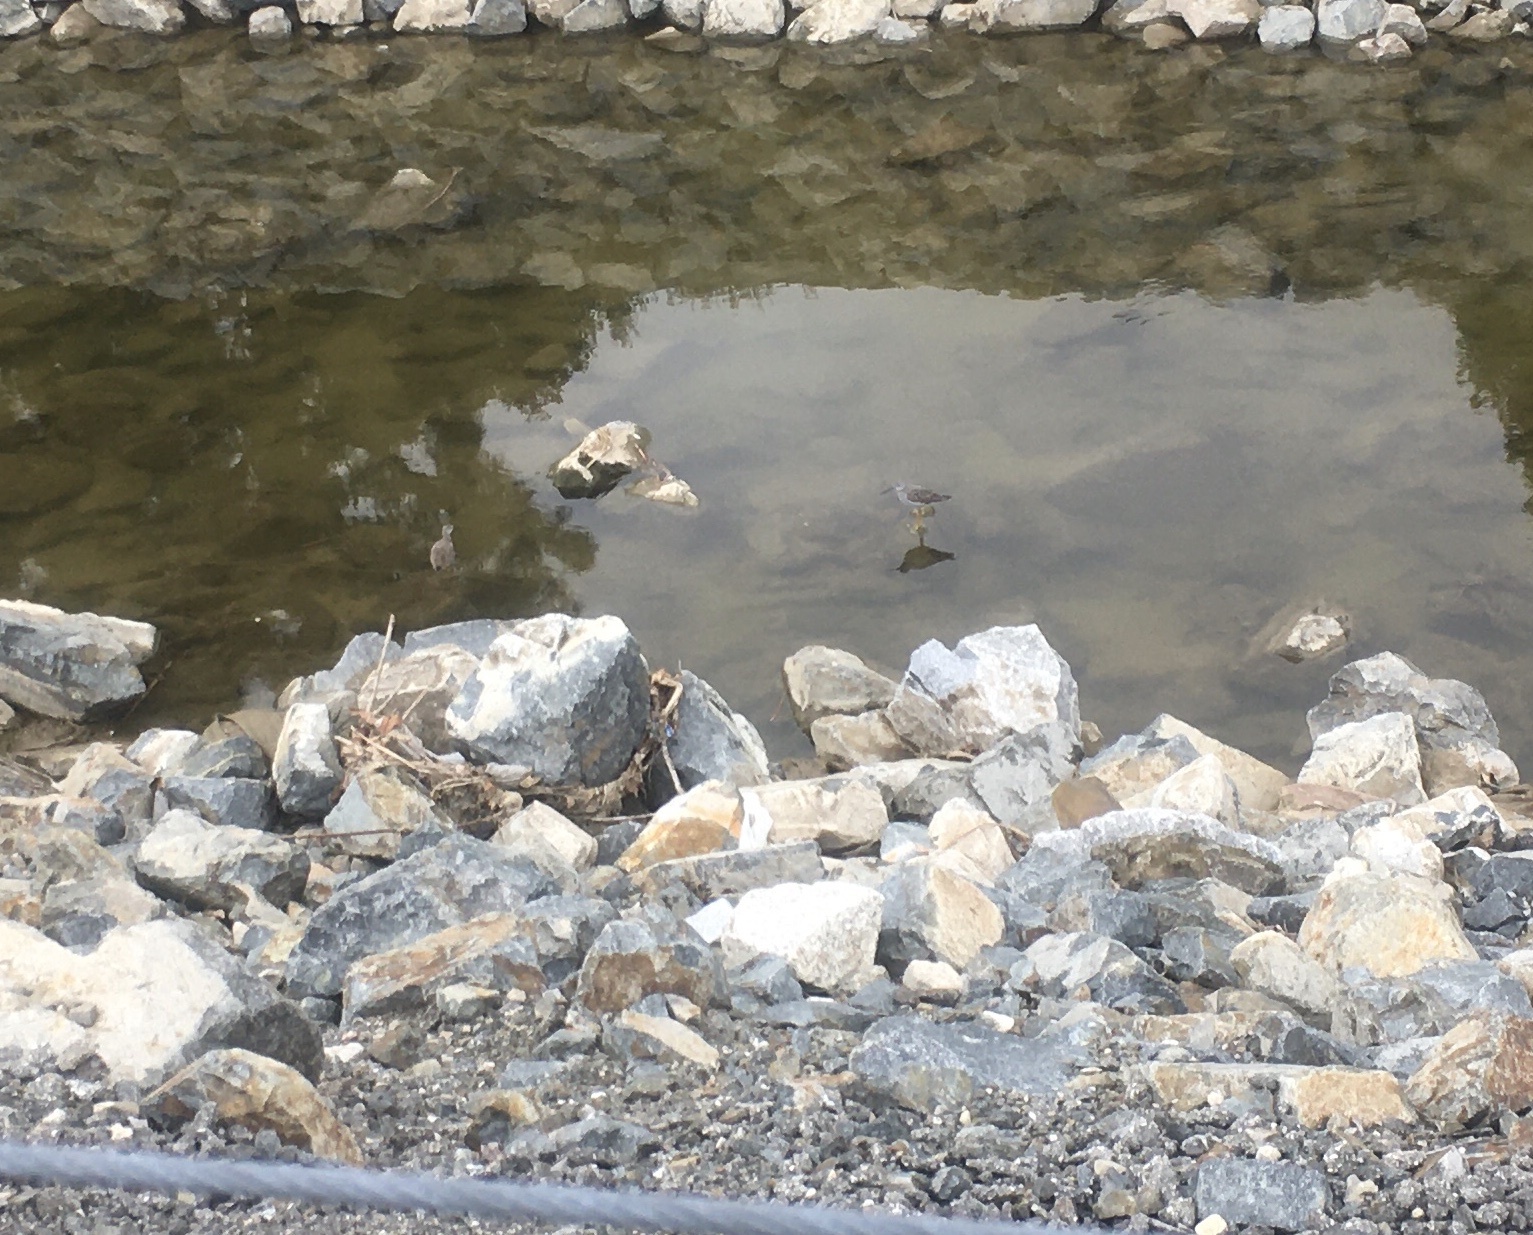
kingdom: Animalia
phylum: Chordata
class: Aves
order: Charadriiformes
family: Scolopacidae
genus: Tringa
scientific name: Tringa melanoleuca
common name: Greater yellowlegs
